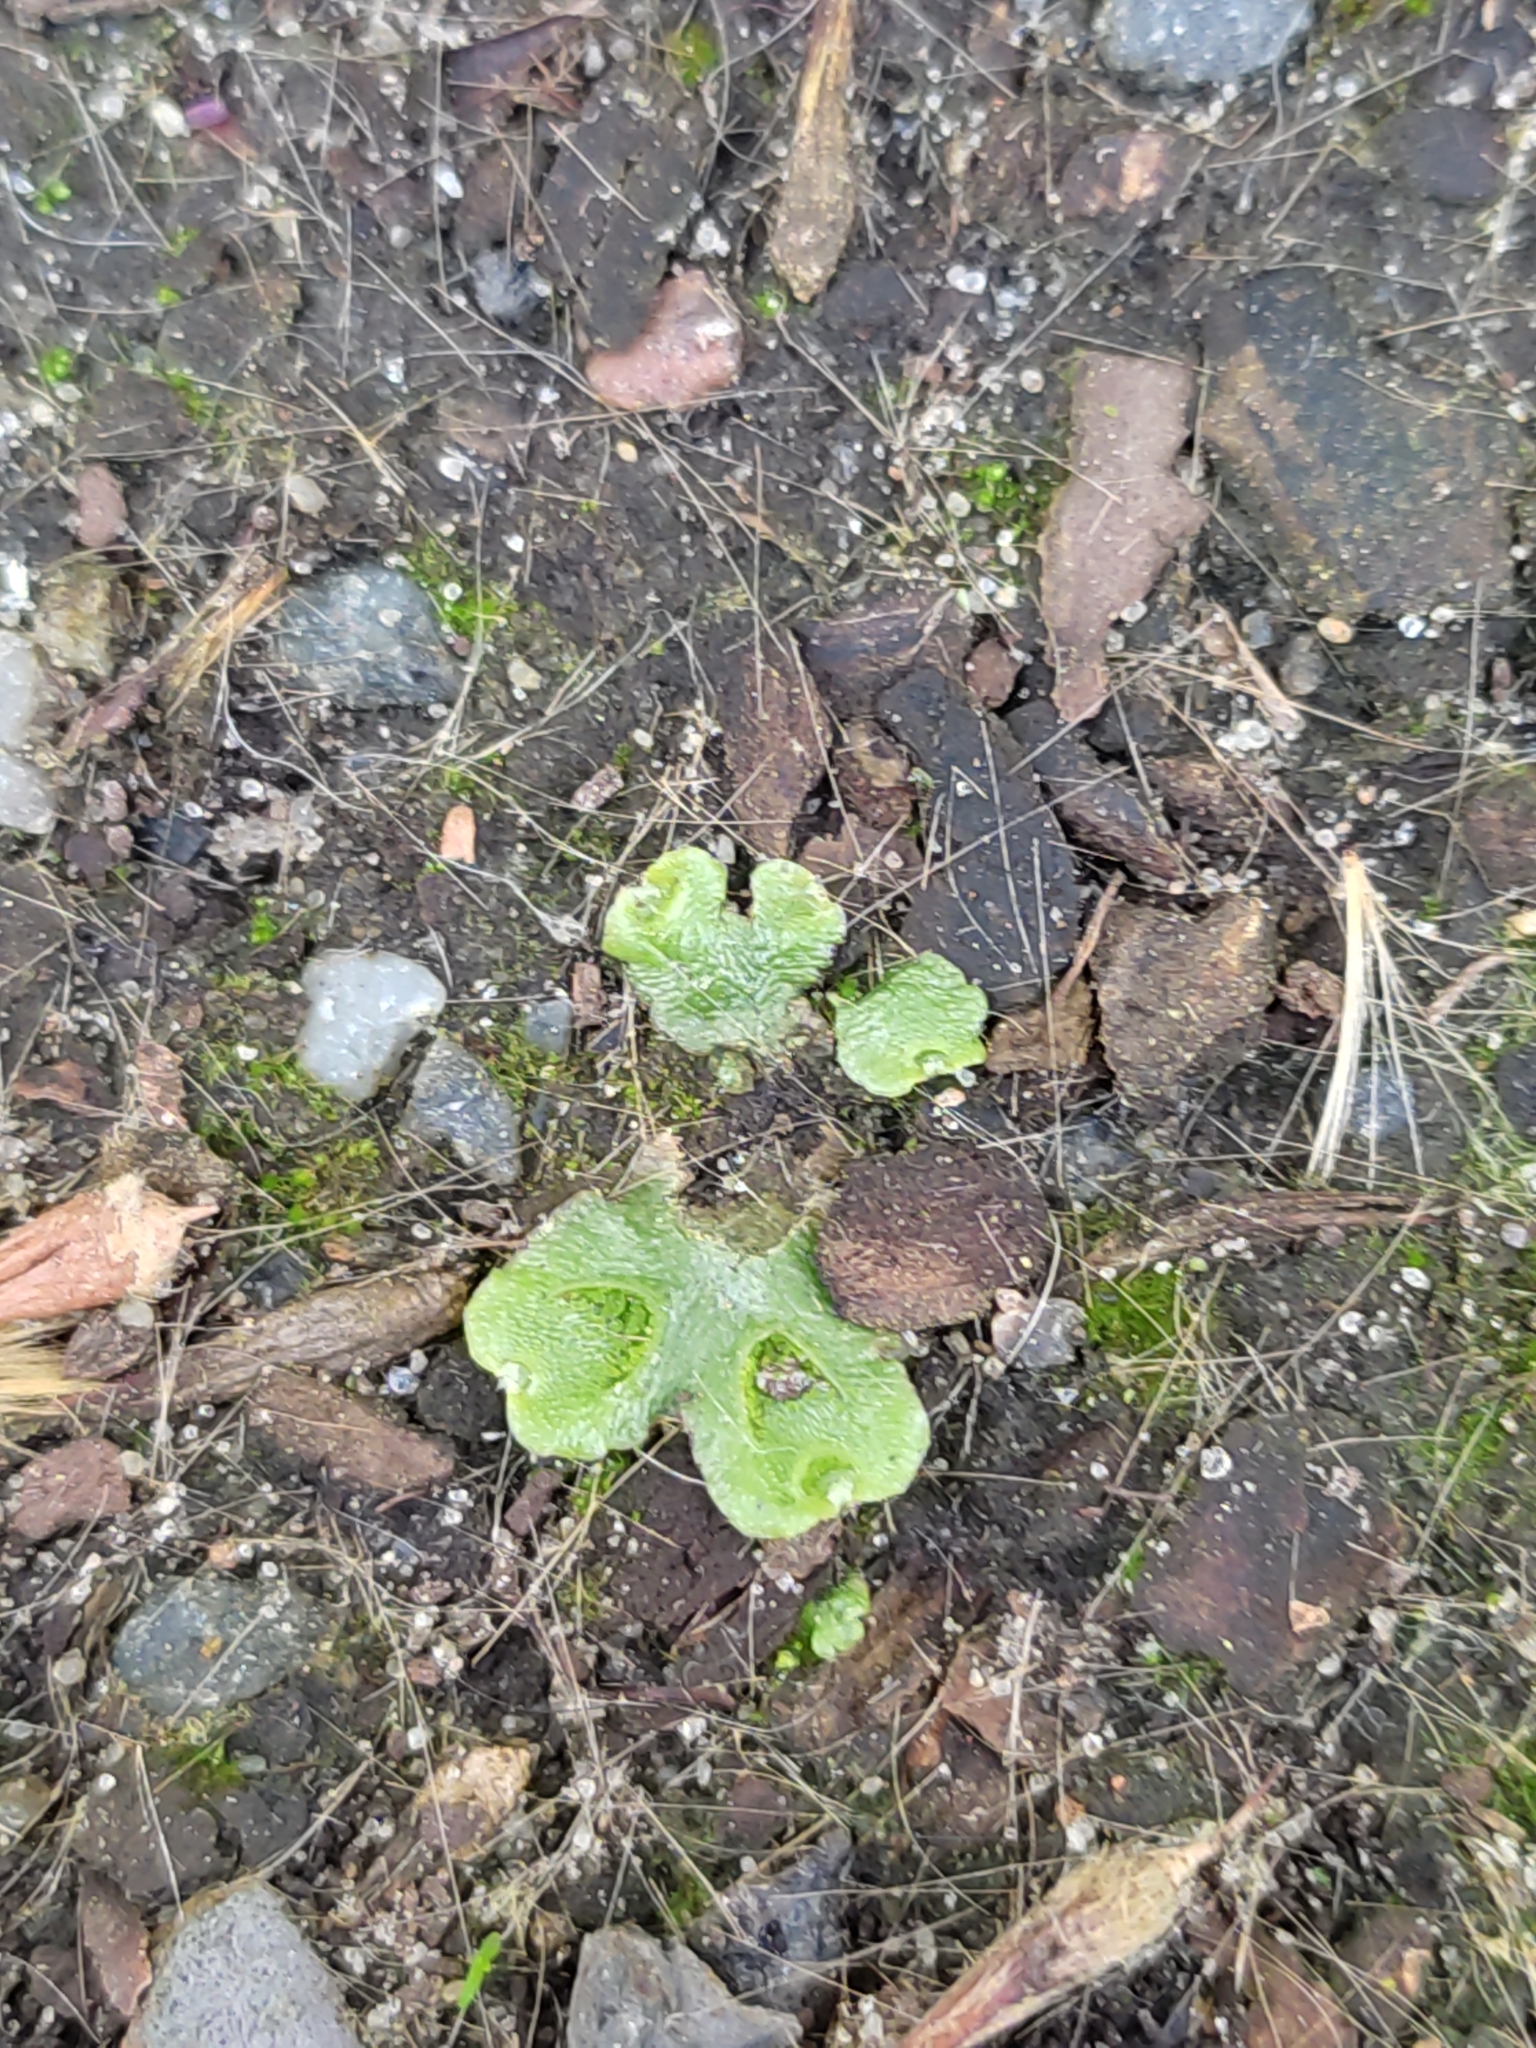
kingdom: Plantae
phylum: Marchantiophyta
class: Marchantiopsida
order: Lunulariales
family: Lunulariaceae
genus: Lunularia
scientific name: Lunularia cruciata
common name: Crescent-cup liverwort
